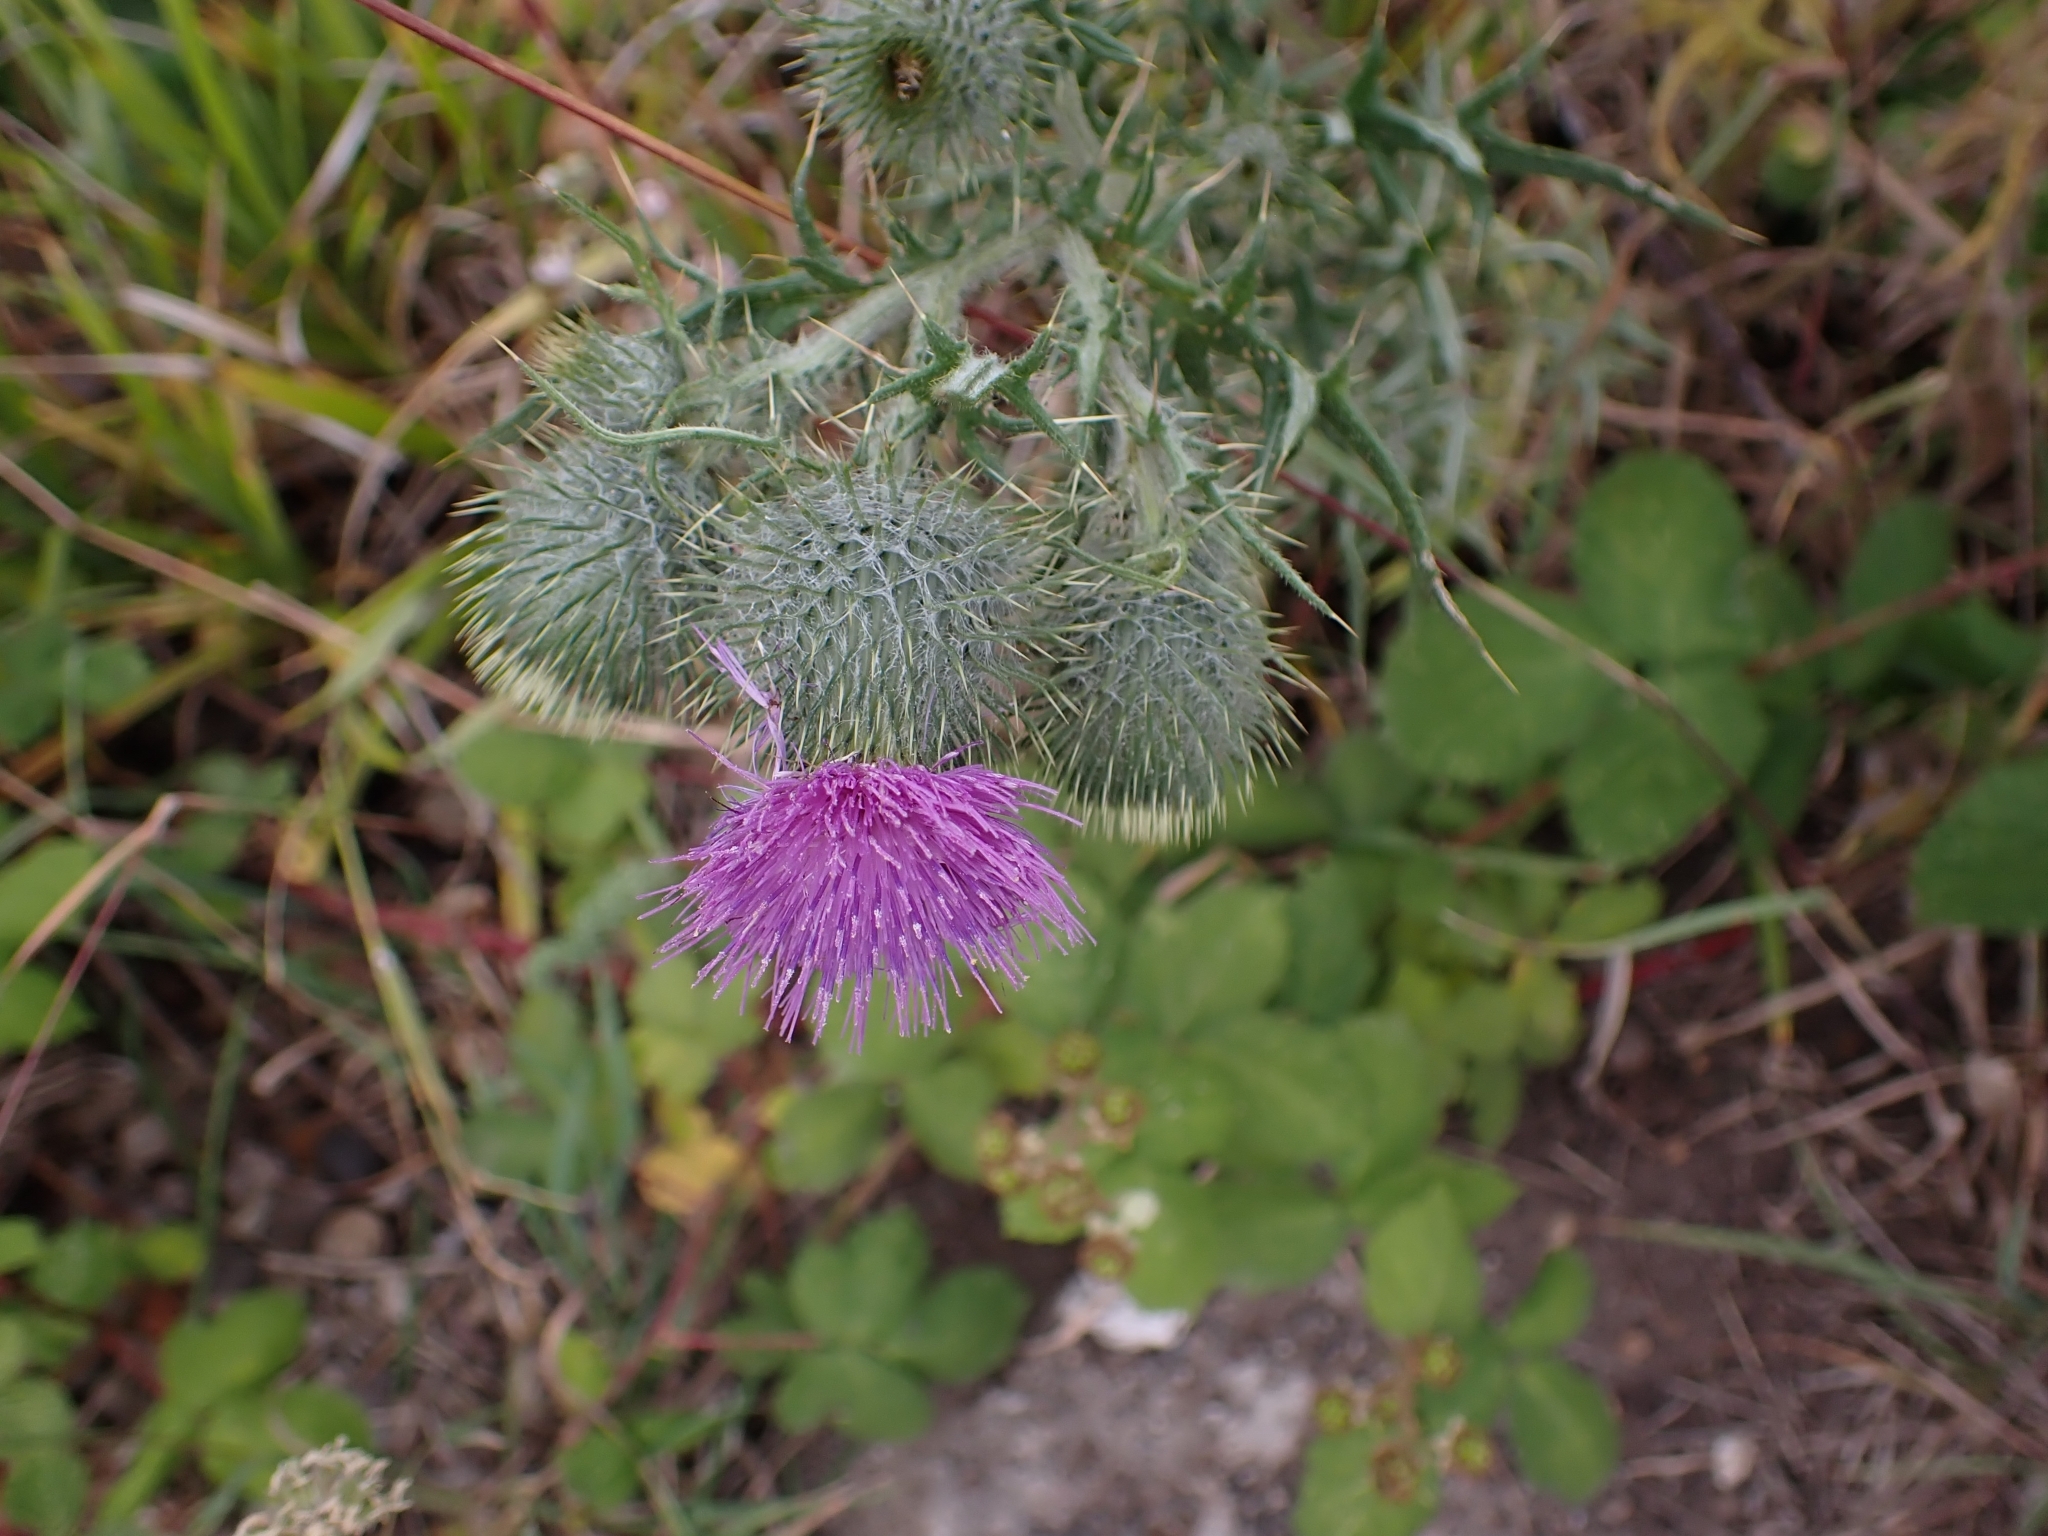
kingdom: Plantae
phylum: Tracheophyta
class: Magnoliopsida
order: Asterales
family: Asteraceae
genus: Cirsium
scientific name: Cirsium vulgare
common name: Bull thistle
